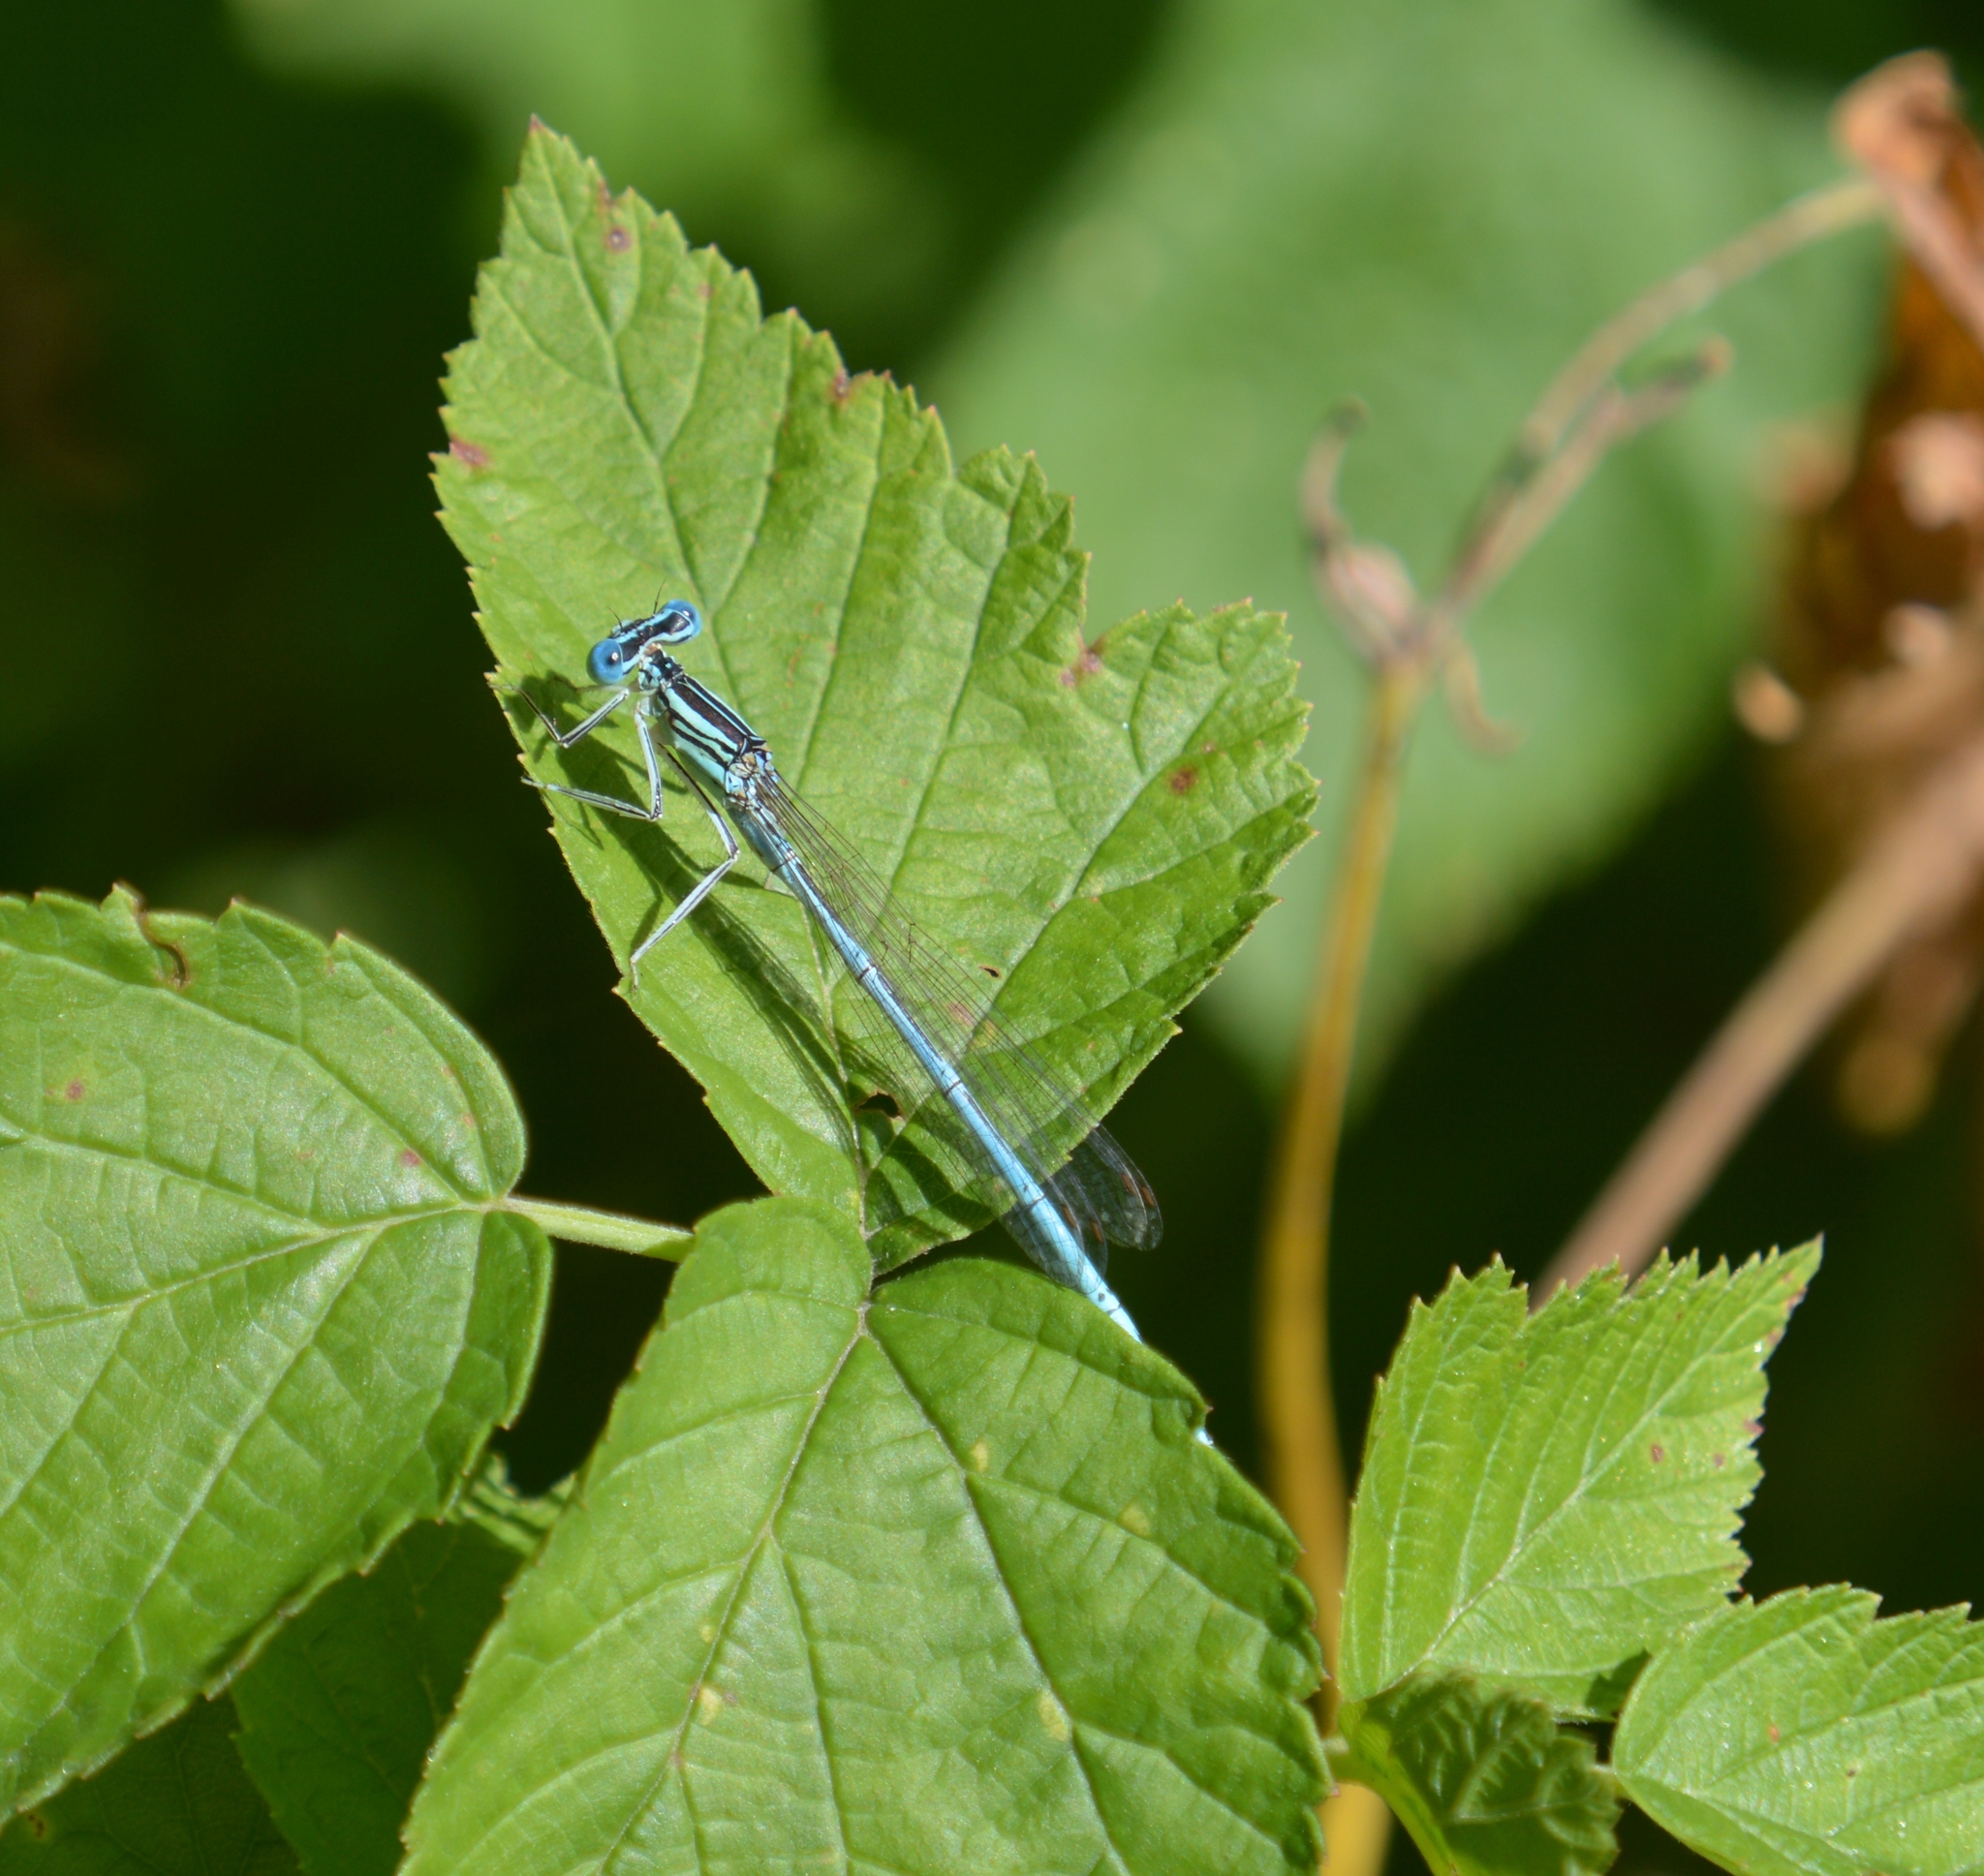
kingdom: Animalia
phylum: Arthropoda
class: Insecta
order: Odonata
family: Platycnemididae
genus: Platycnemis
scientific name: Platycnemis pennipes
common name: White-legged damselfly
